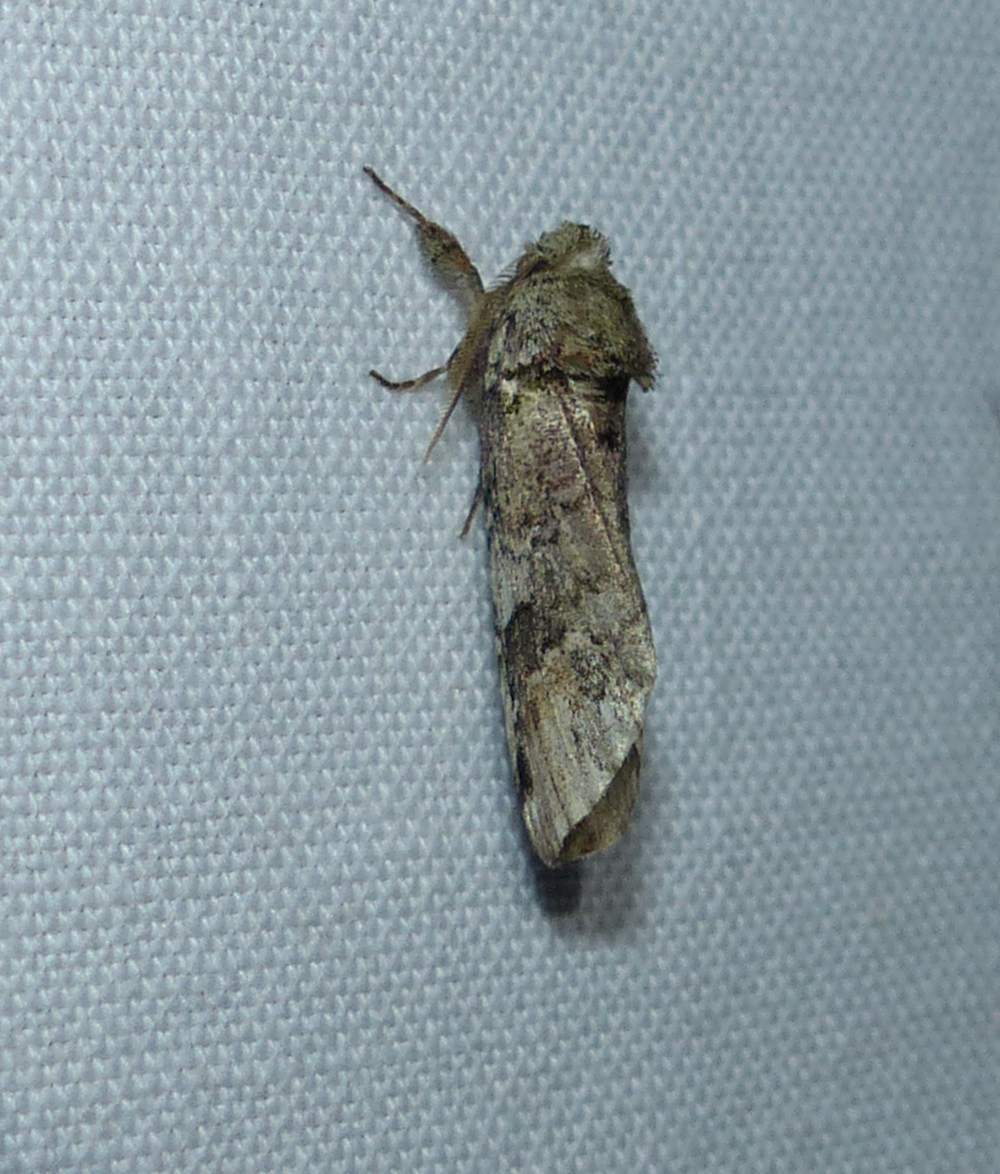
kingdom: Animalia
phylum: Arthropoda
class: Insecta
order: Lepidoptera
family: Notodontidae
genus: Schizura
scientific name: Schizura
